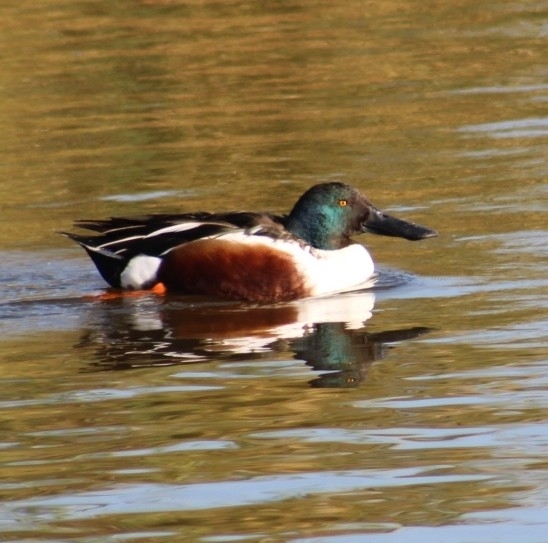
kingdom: Animalia
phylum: Chordata
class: Aves
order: Anseriformes
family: Anatidae
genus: Spatula
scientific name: Spatula clypeata
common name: Northern shoveler
